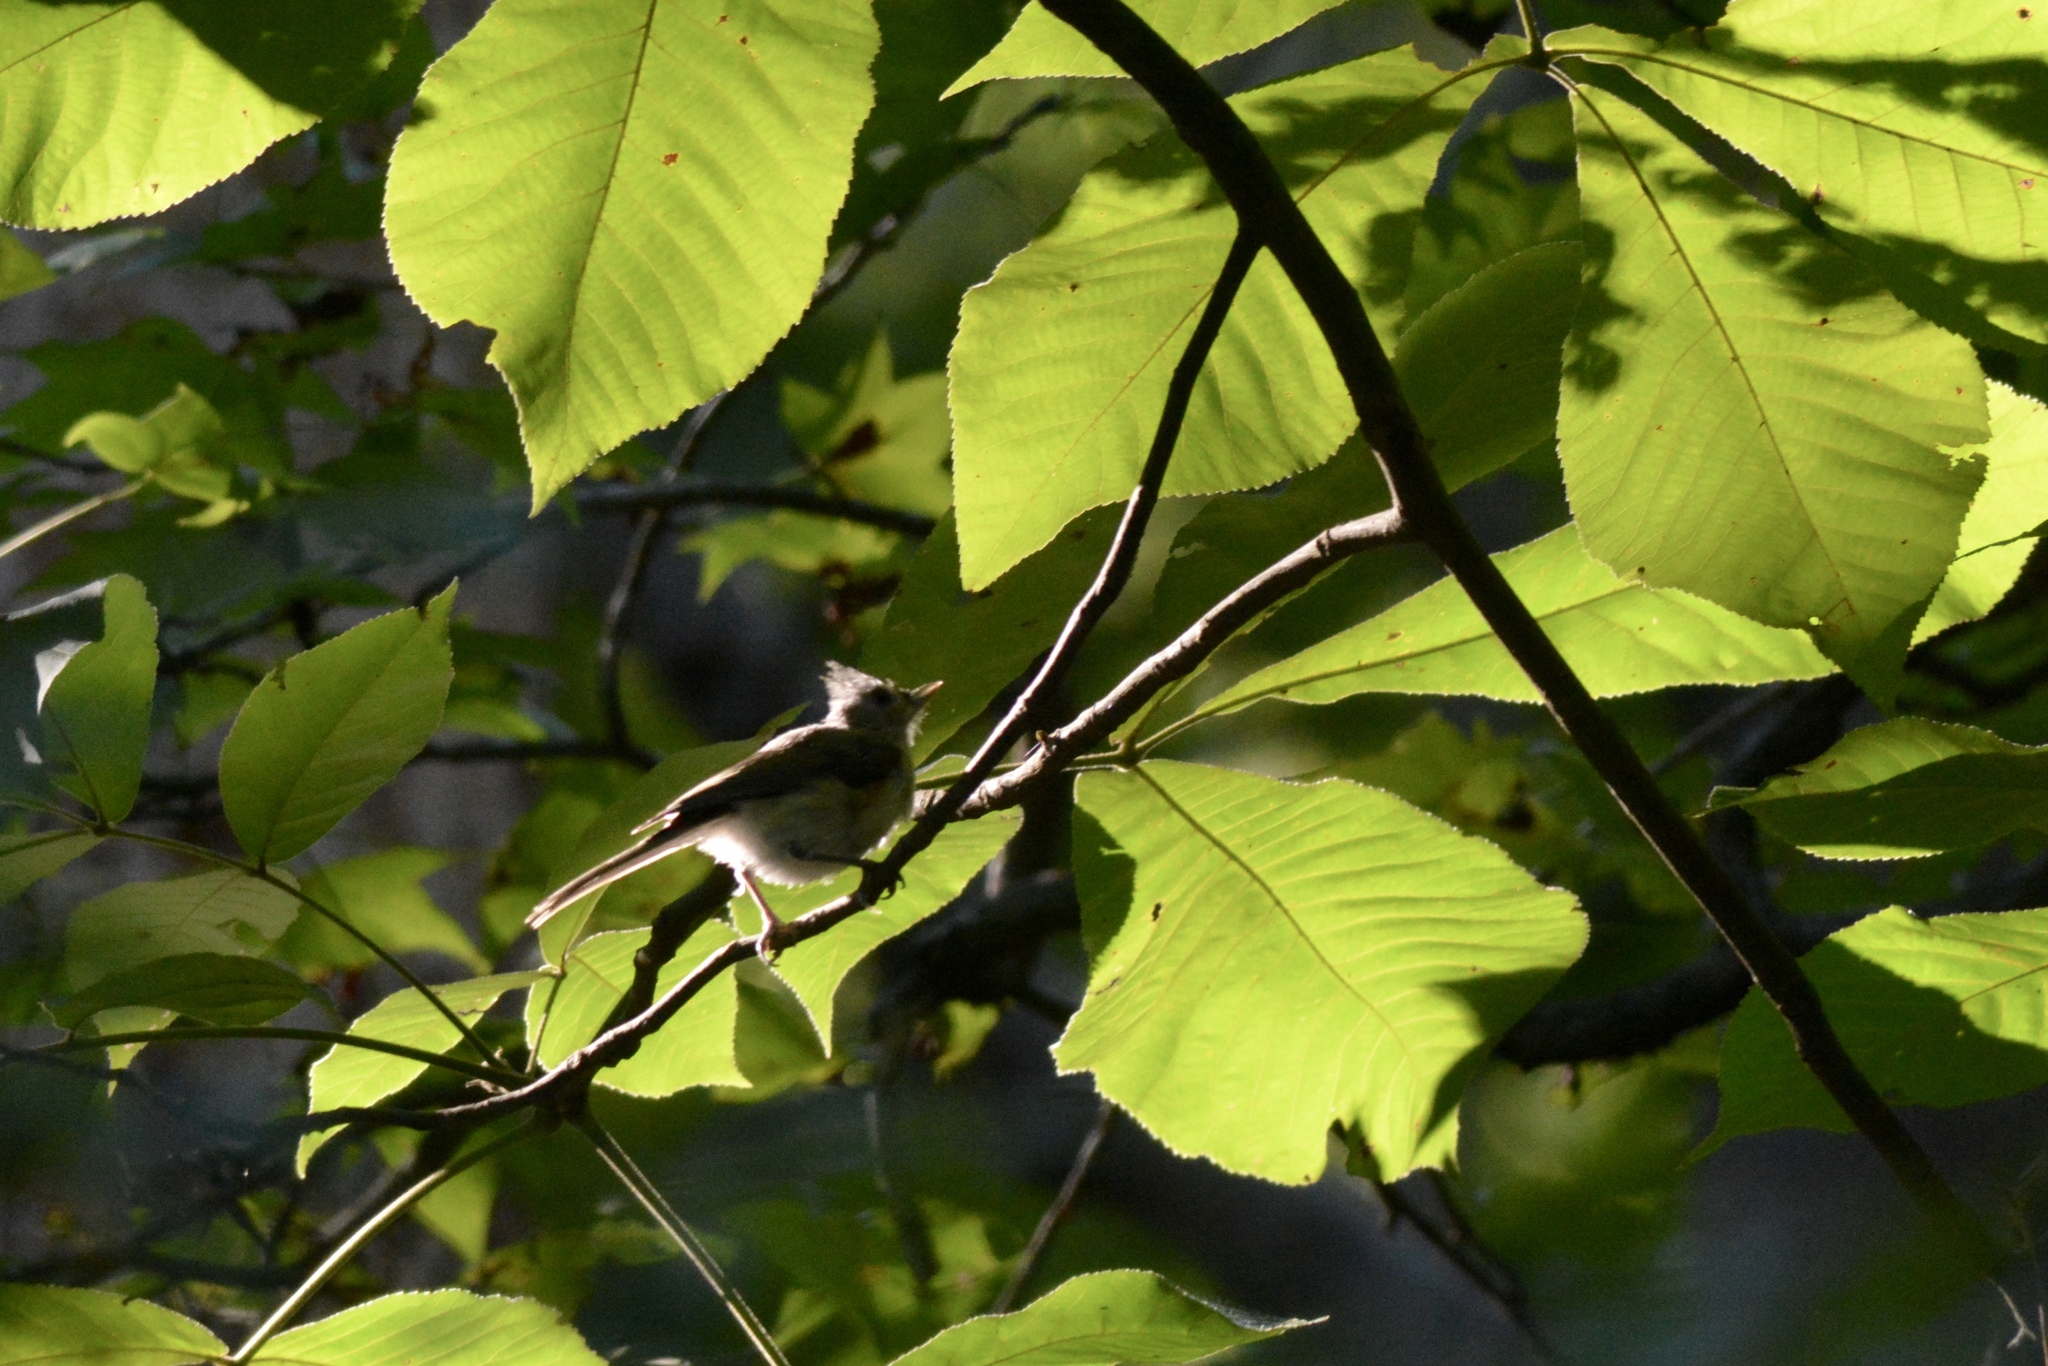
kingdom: Animalia
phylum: Chordata
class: Aves
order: Passeriformes
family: Paridae
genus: Baeolophus
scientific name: Baeolophus bicolor
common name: Tufted titmouse
